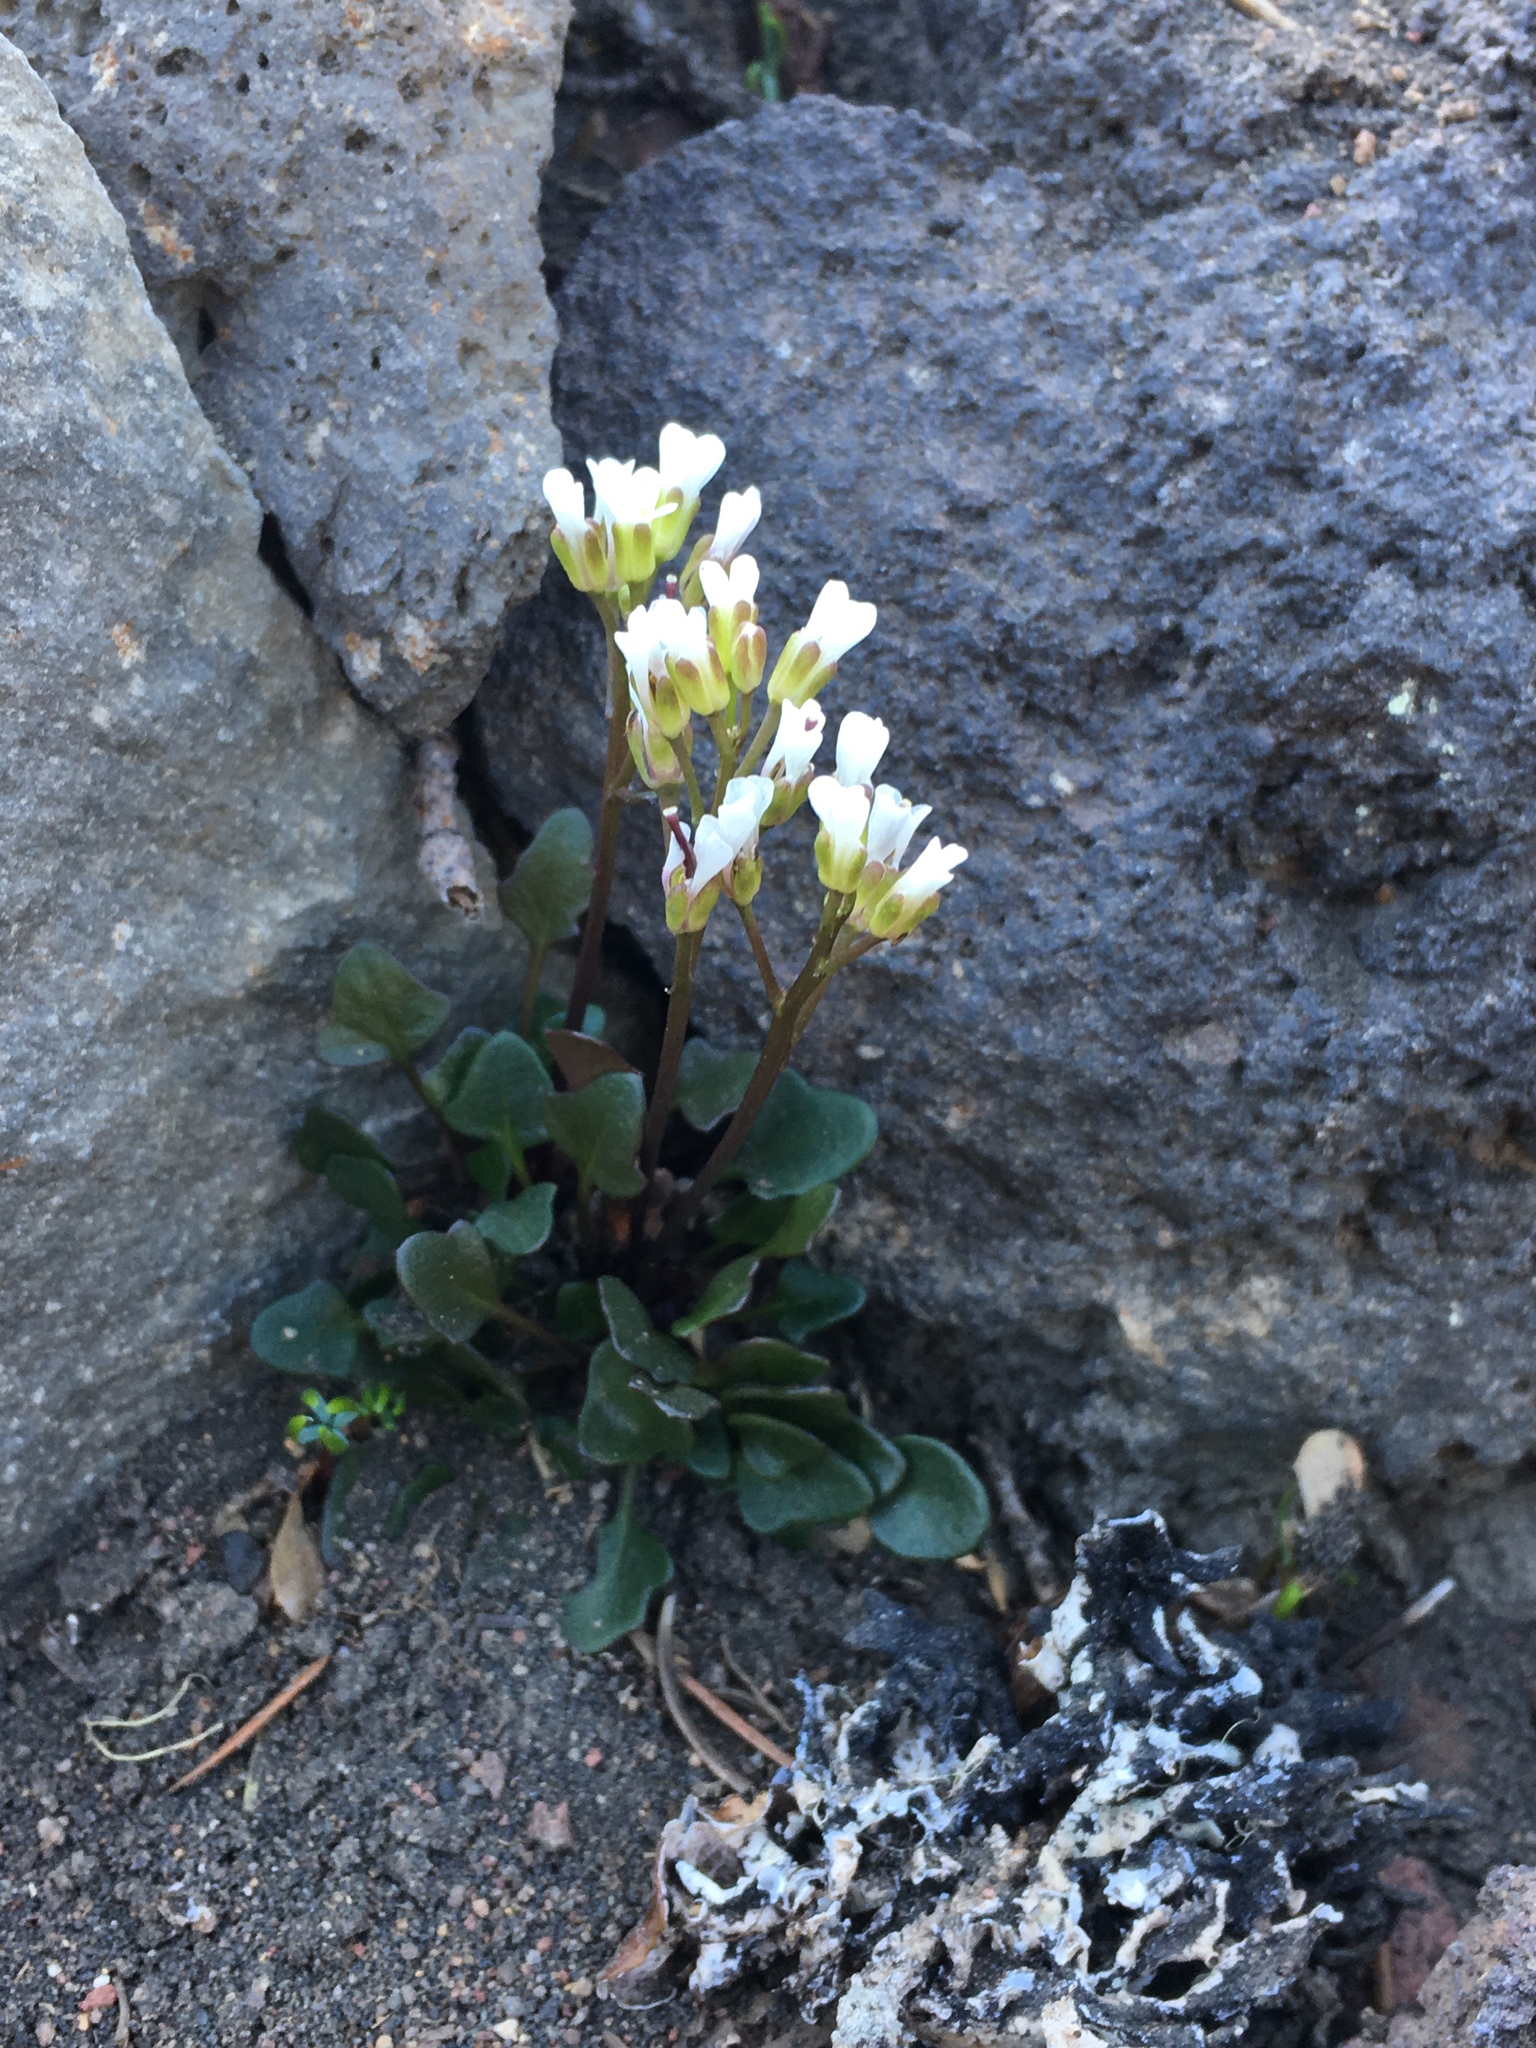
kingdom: Plantae
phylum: Tracheophyta
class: Magnoliopsida
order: Brassicales
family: Brassicaceae
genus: Cardamine
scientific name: Cardamine bellidifolia
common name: Alpine bittercress
